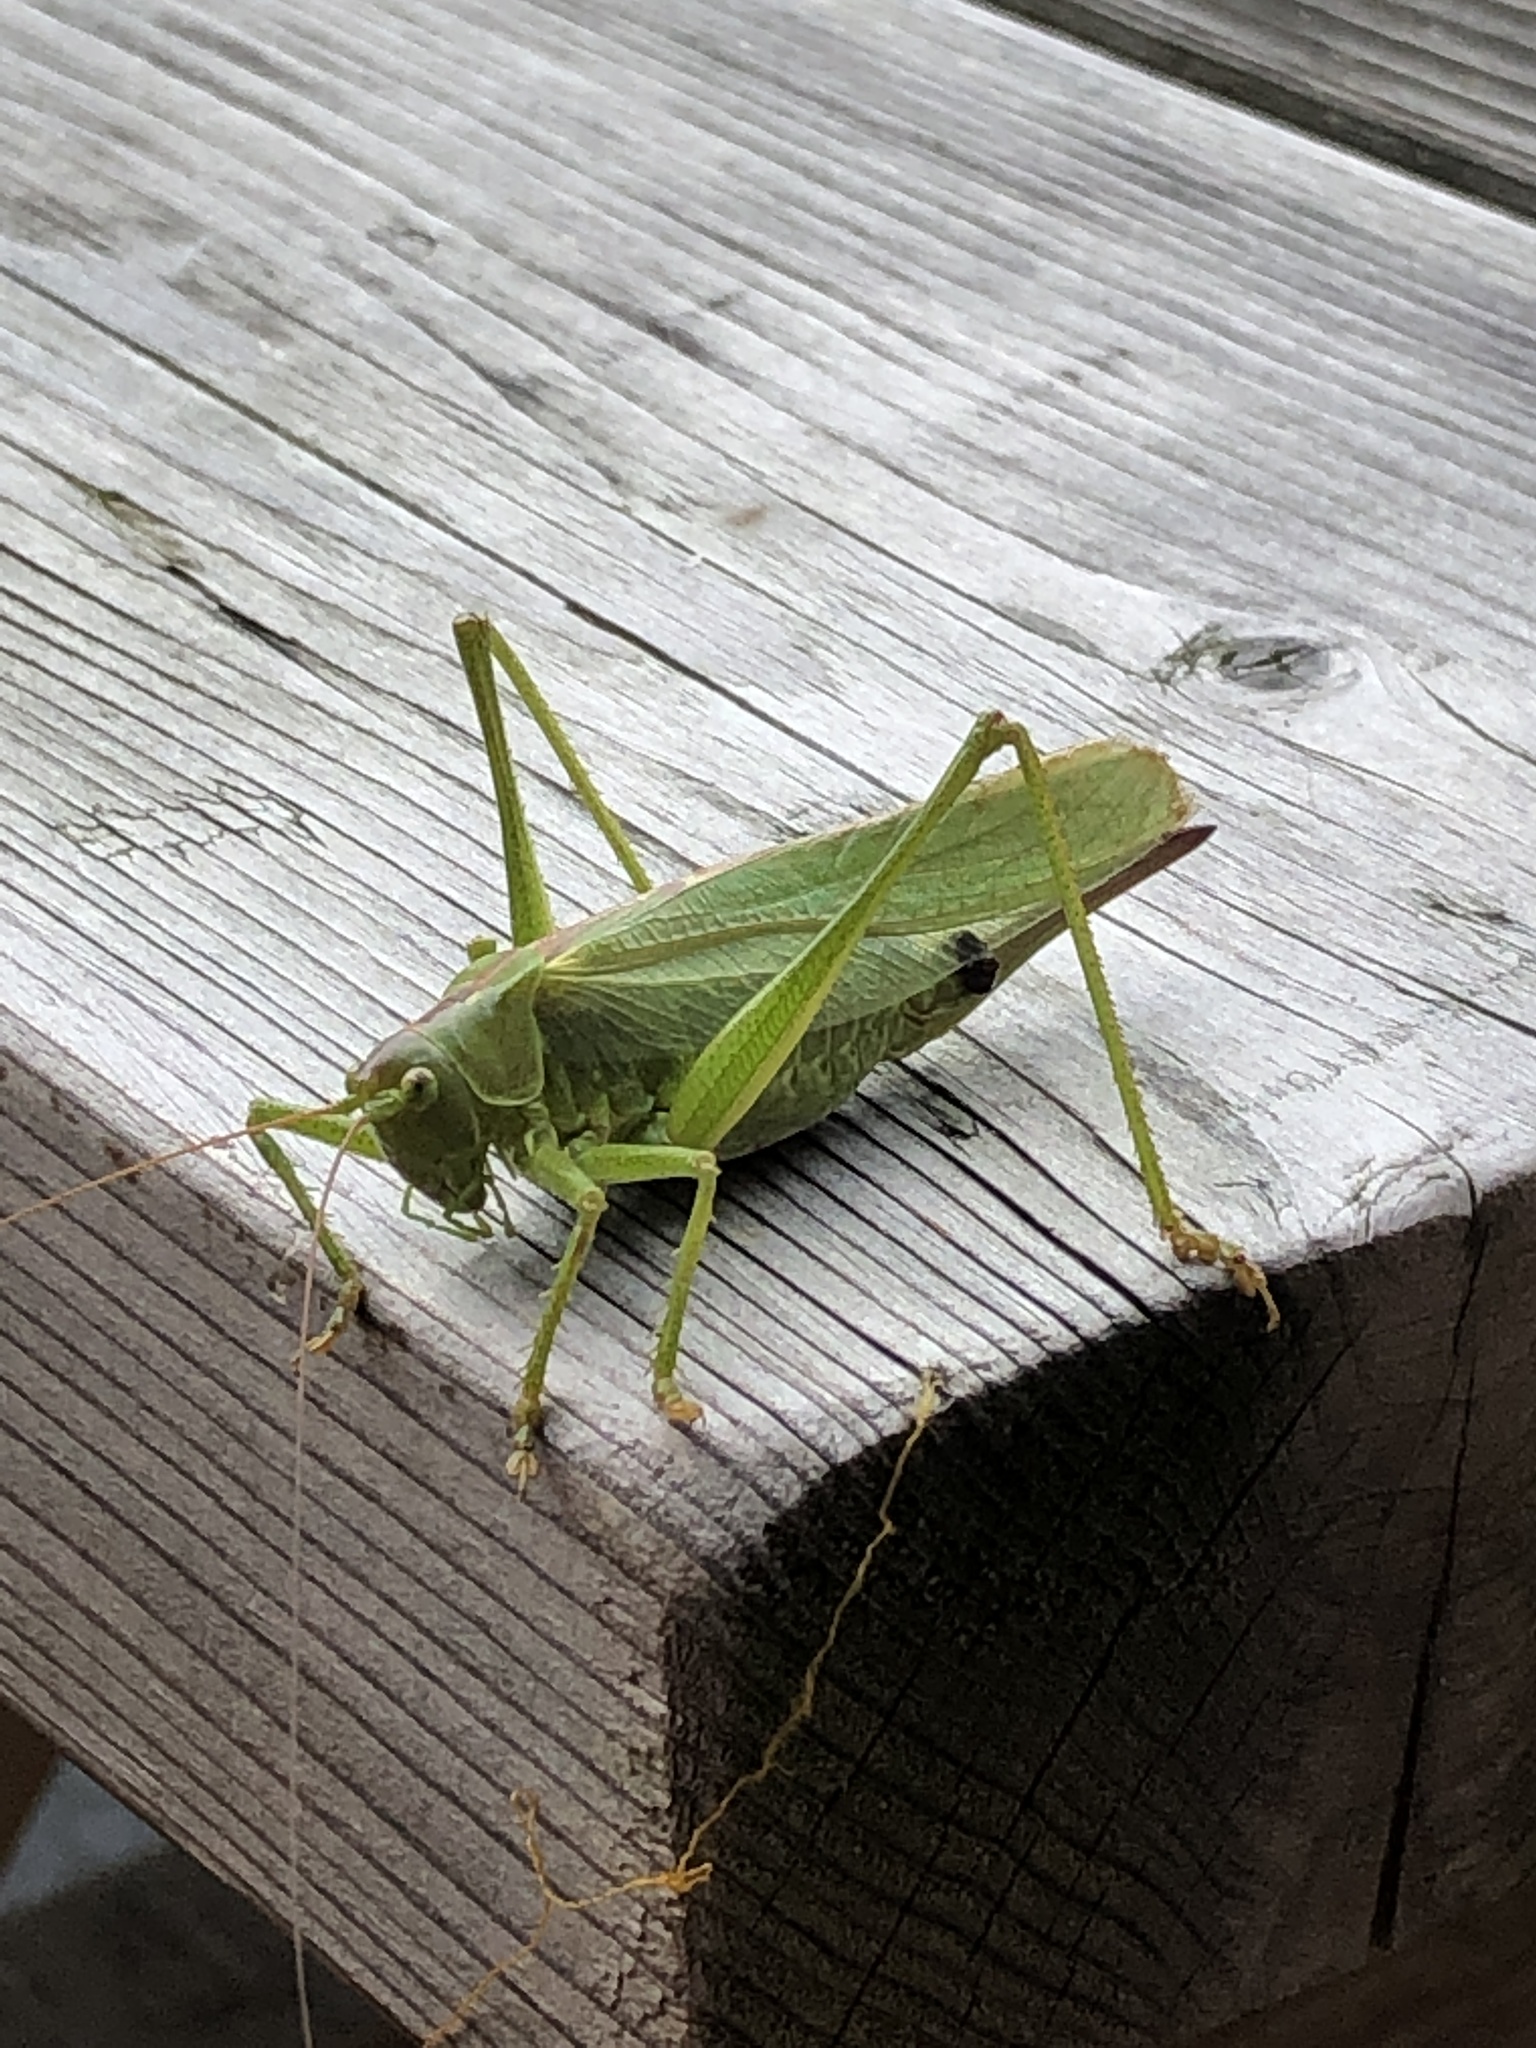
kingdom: Animalia
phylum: Arthropoda
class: Insecta
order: Orthoptera
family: Tettigoniidae
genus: Tettigonia
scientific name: Tettigonia viridissima
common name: Great green bush-cricket
